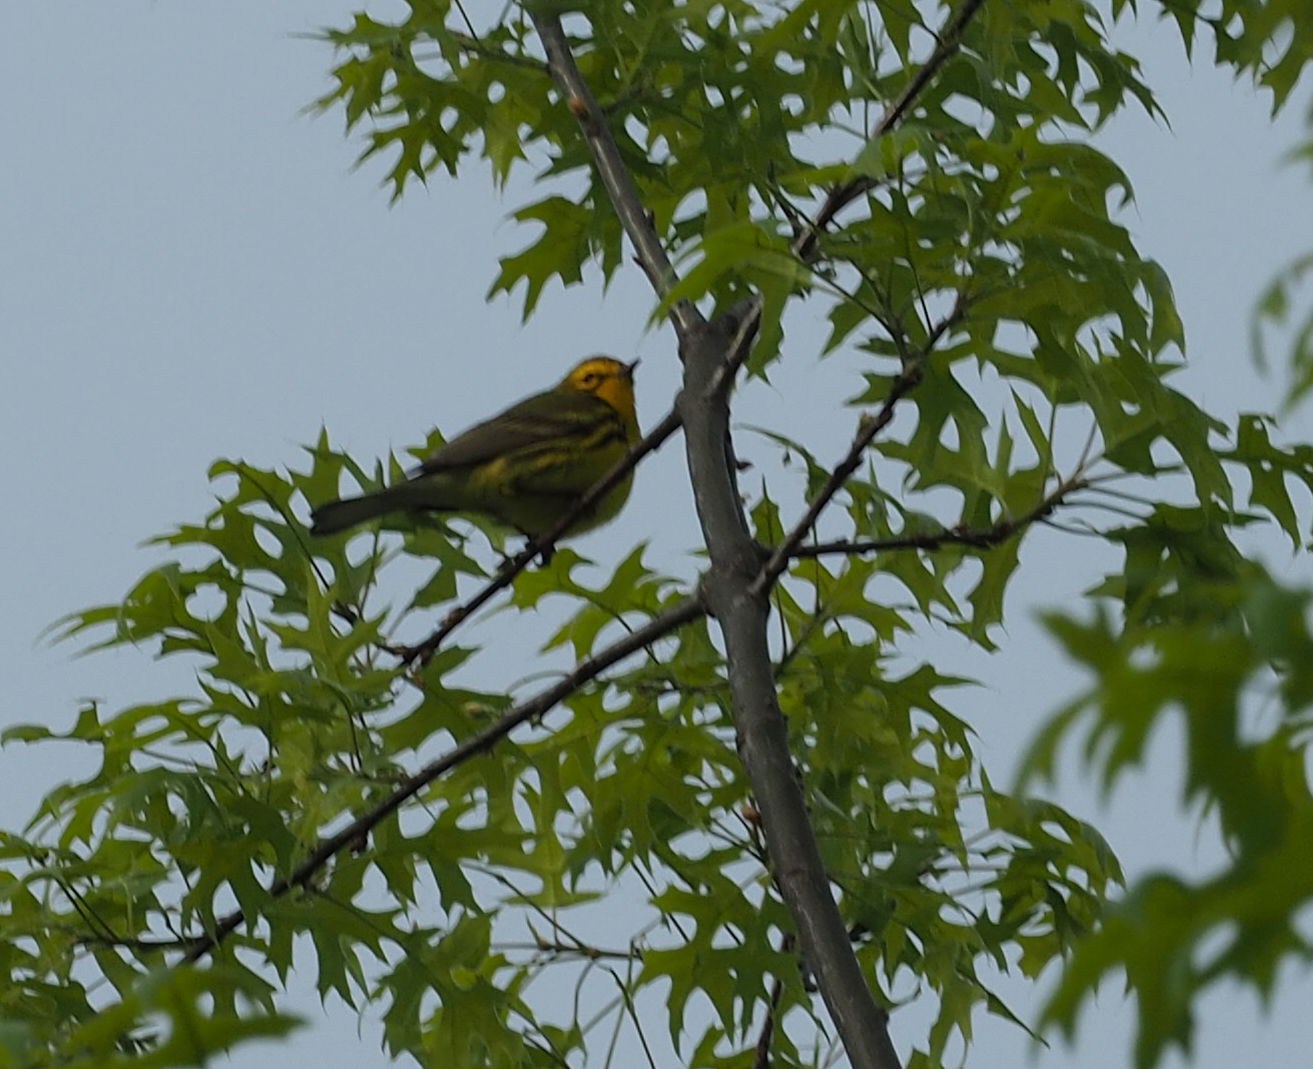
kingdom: Animalia
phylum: Chordata
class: Aves
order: Passeriformes
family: Parulidae
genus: Setophaga
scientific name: Setophaga discolor
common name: Prairie warbler
